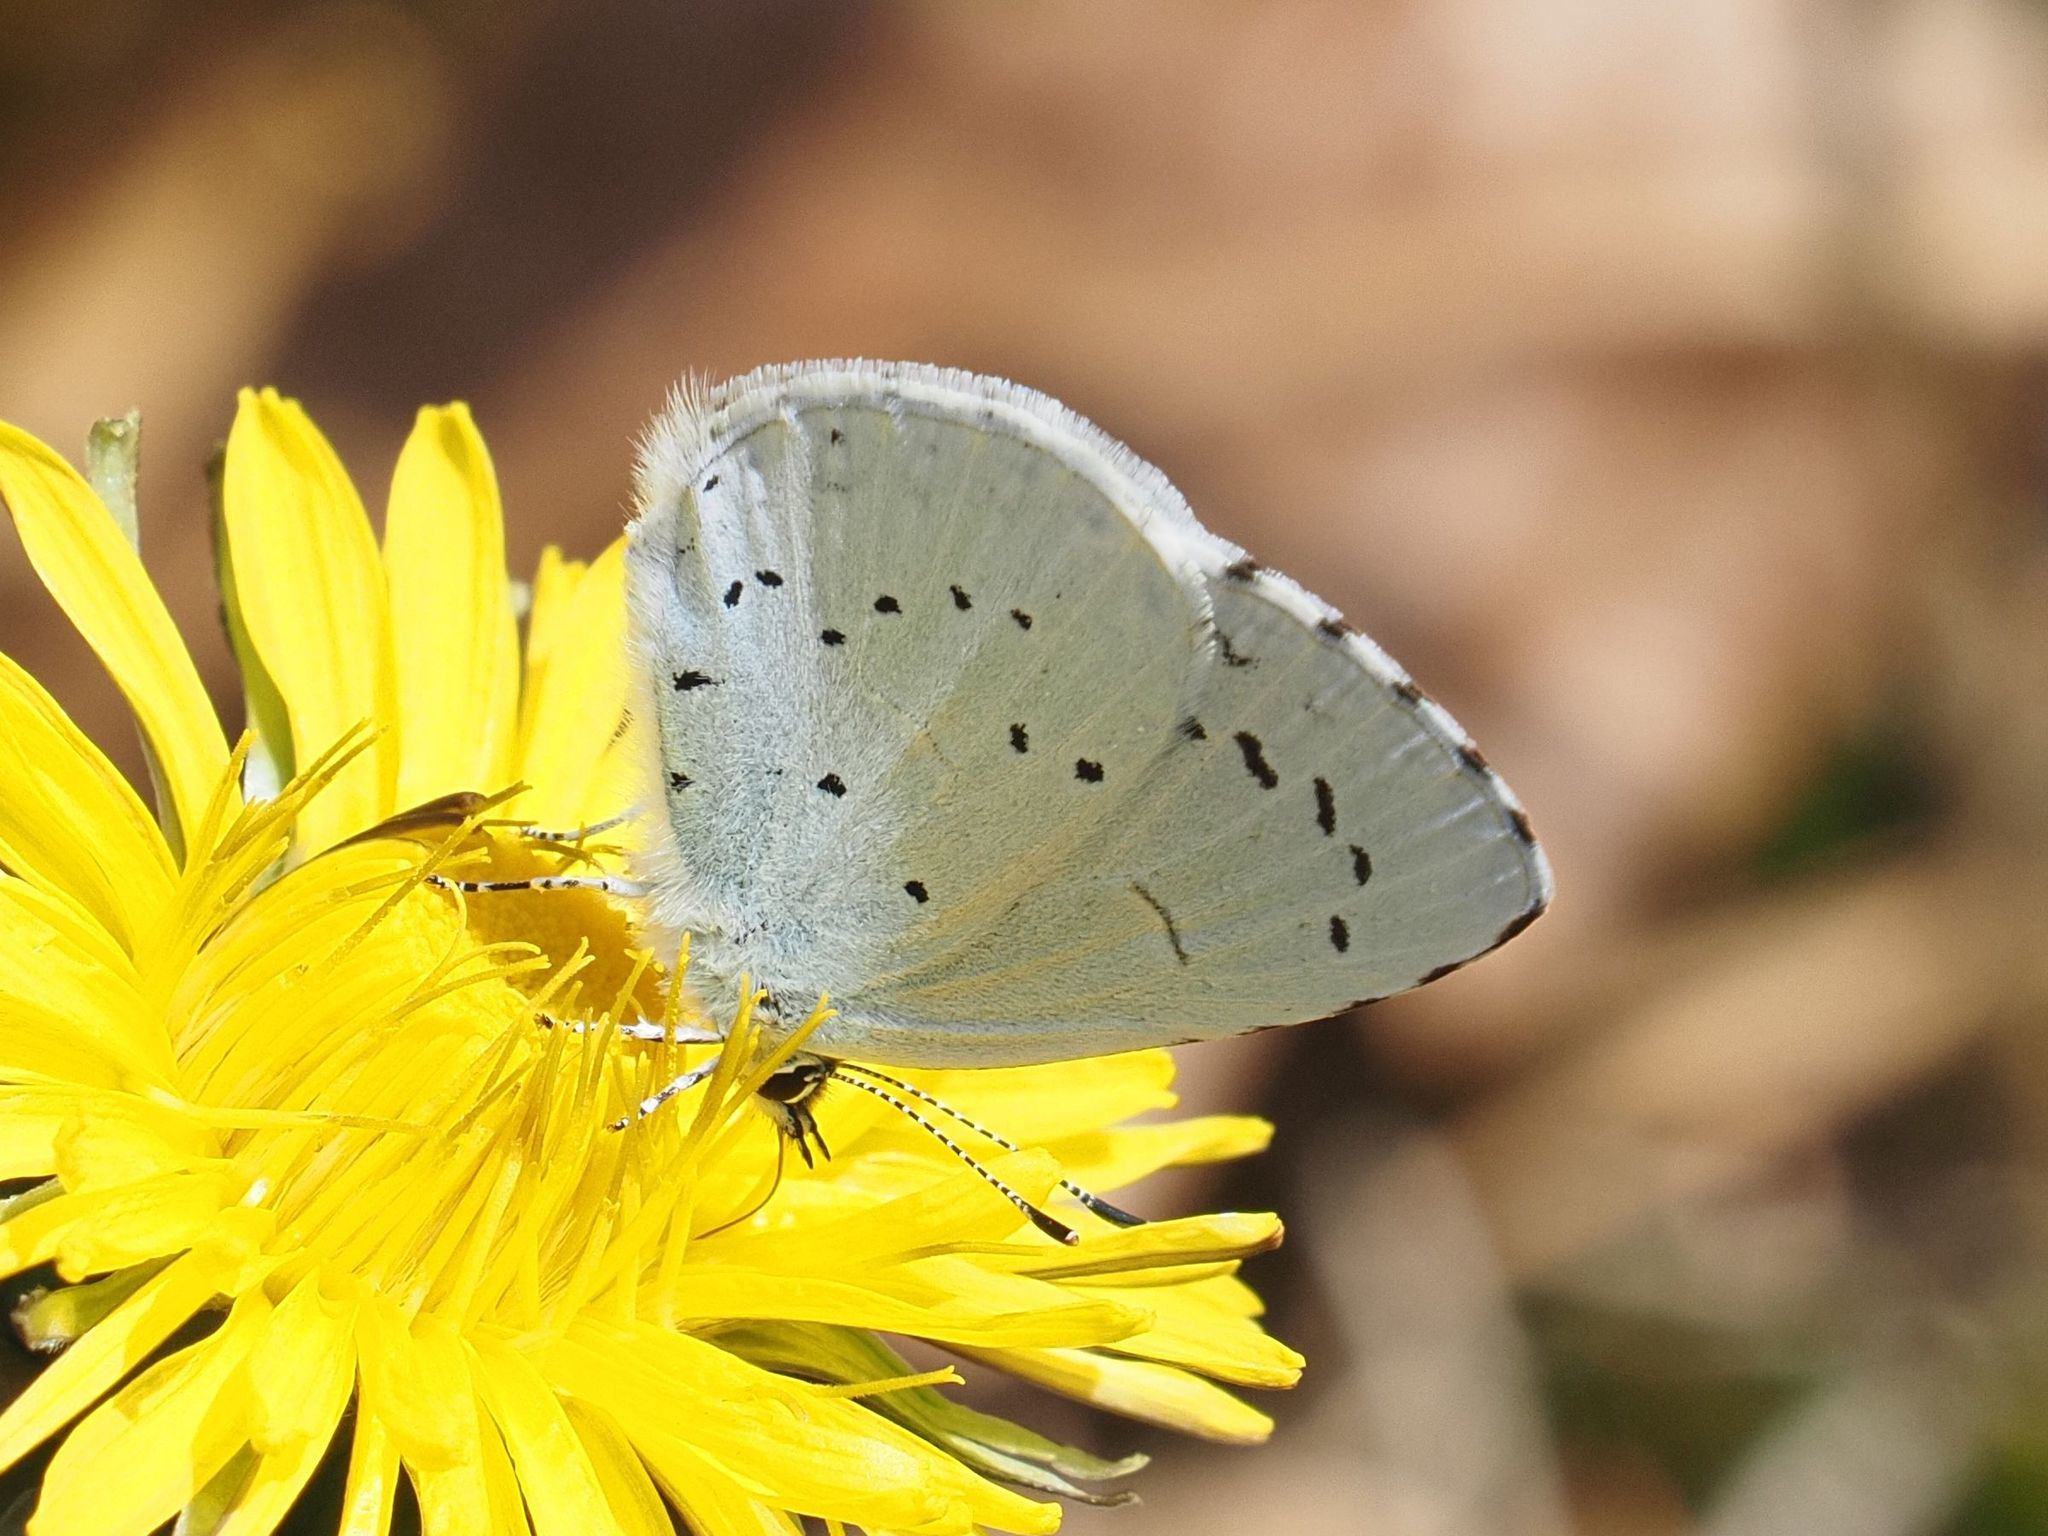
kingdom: Animalia
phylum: Arthropoda
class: Insecta
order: Lepidoptera
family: Lycaenidae
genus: Celastrina
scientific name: Celastrina argiolus
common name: Holly blue
